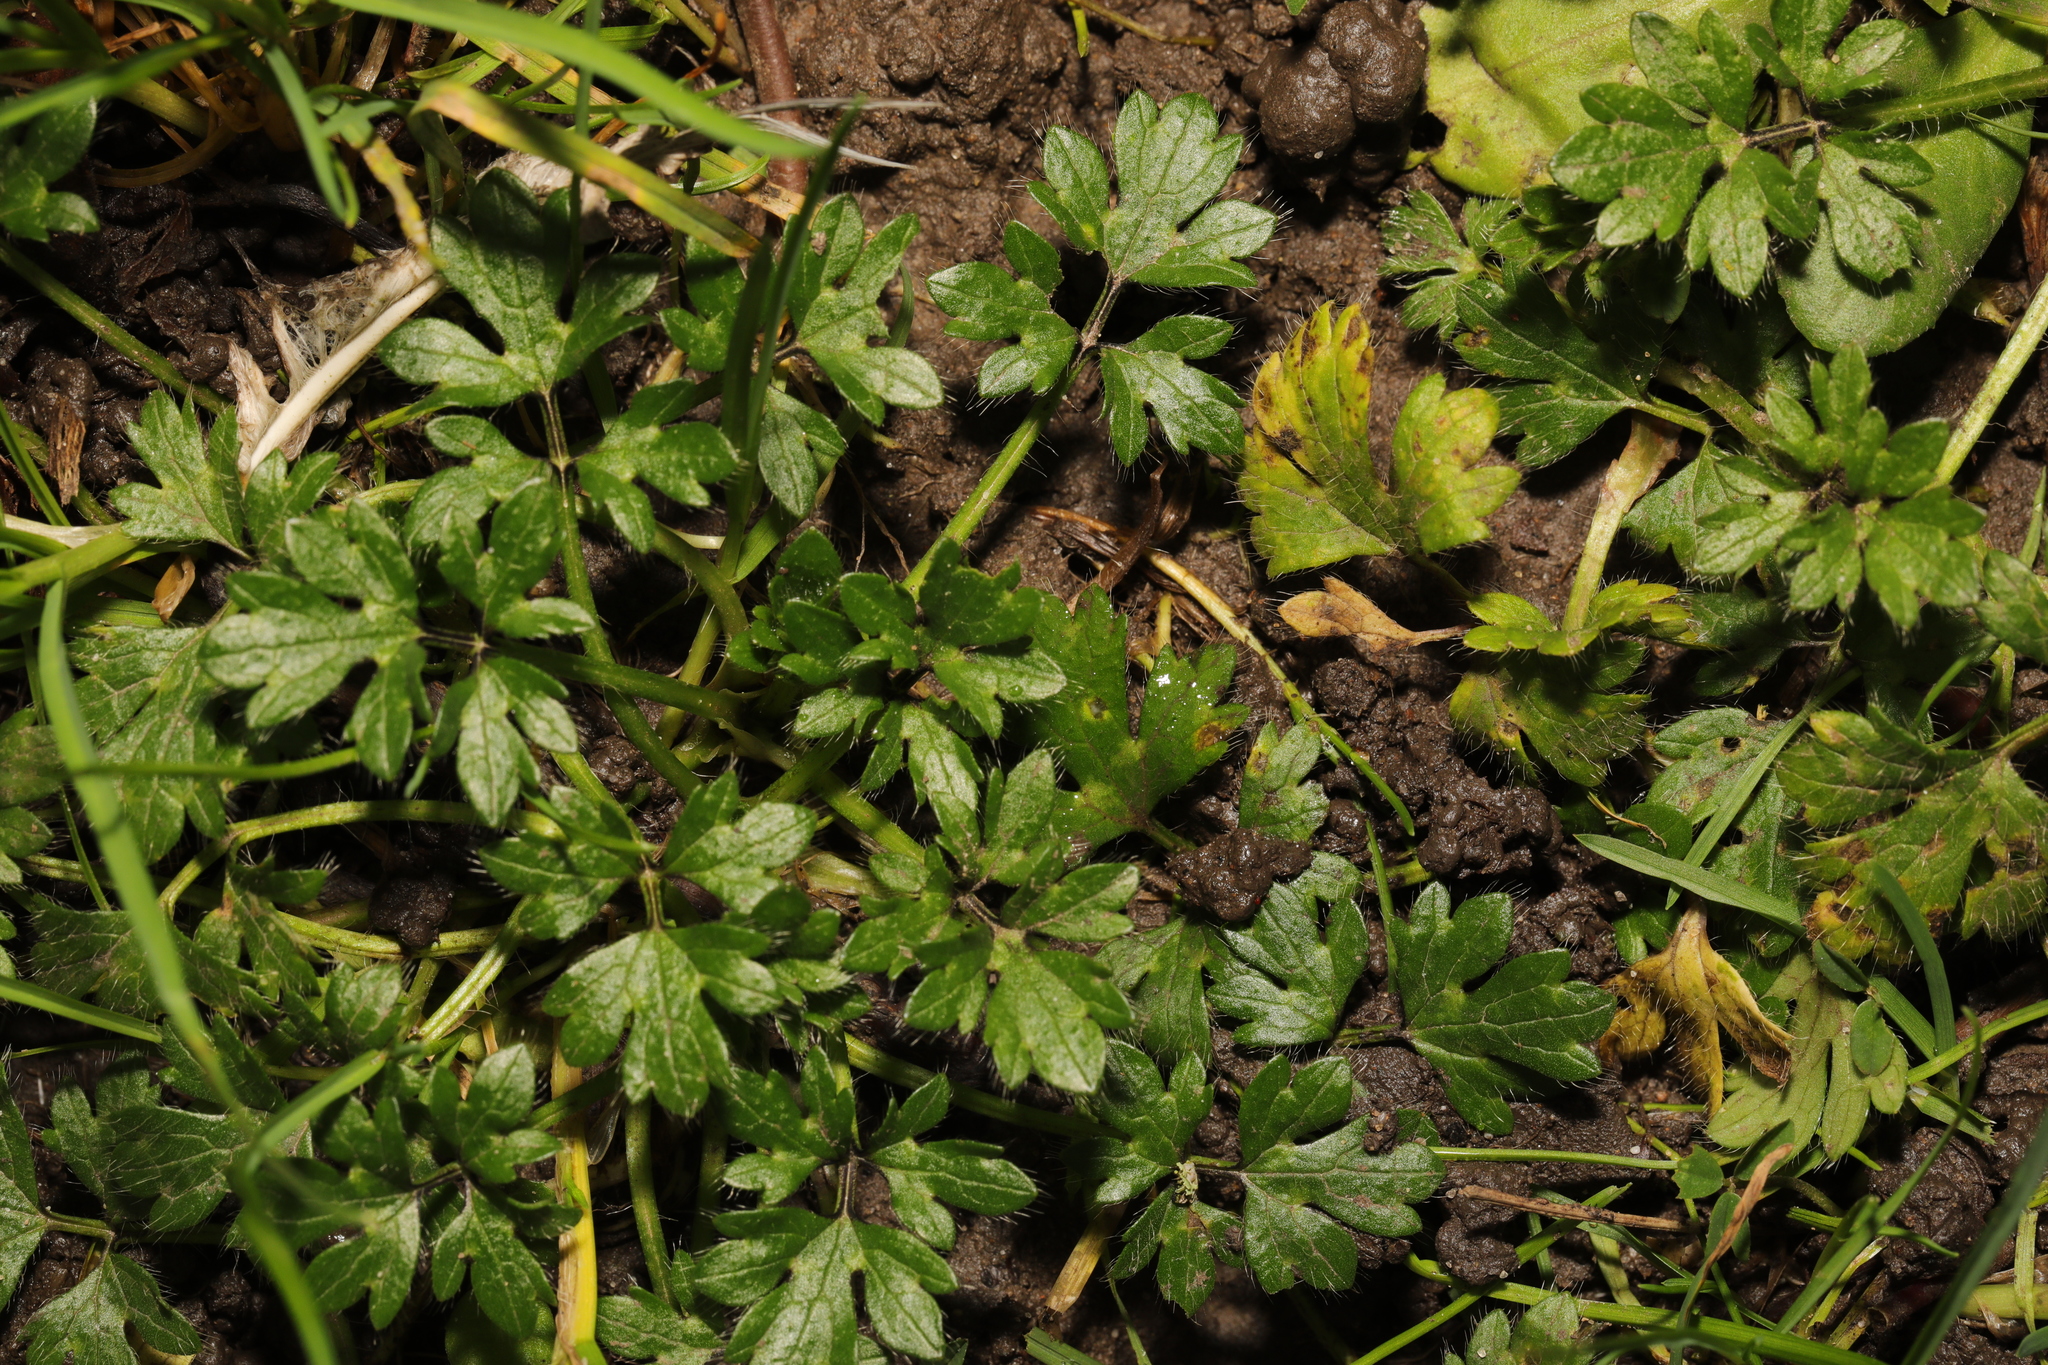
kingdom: Plantae
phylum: Tracheophyta
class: Magnoliopsida
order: Ranunculales
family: Ranunculaceae
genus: Ranunculus
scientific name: Ranunculus repens
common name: Creeping buttercup
